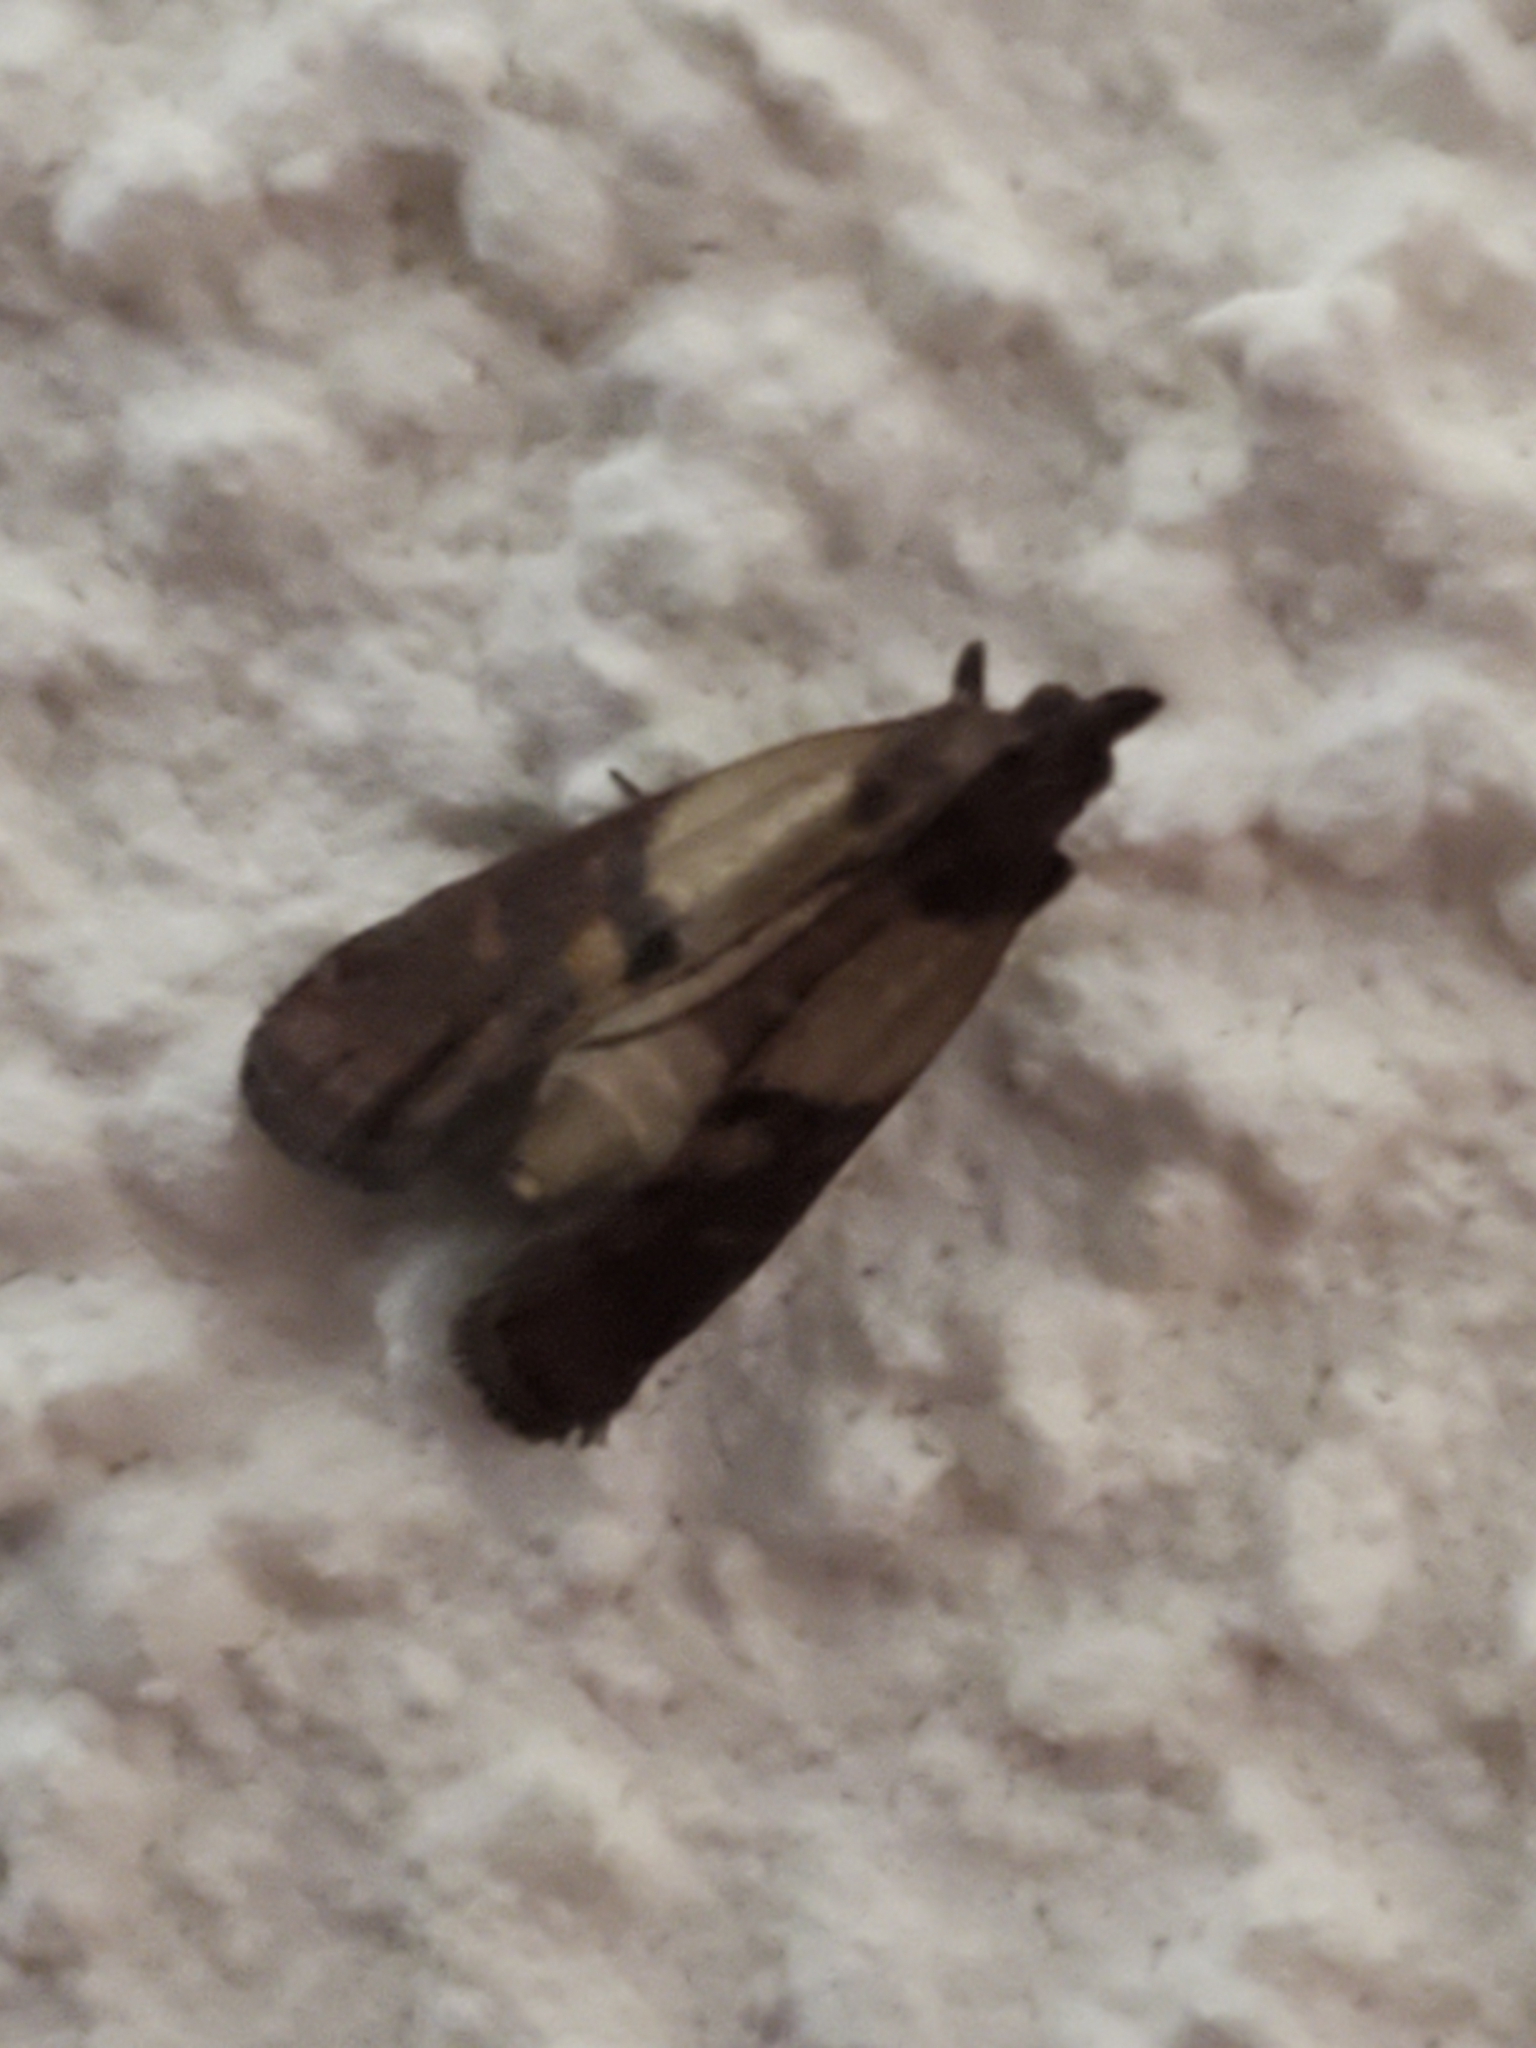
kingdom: Animalia
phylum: Arthropoda
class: Insecta
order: Lepidoptera
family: Pyralidae
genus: Plodia
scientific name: Plodia interpunctella
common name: Indian meal moth
